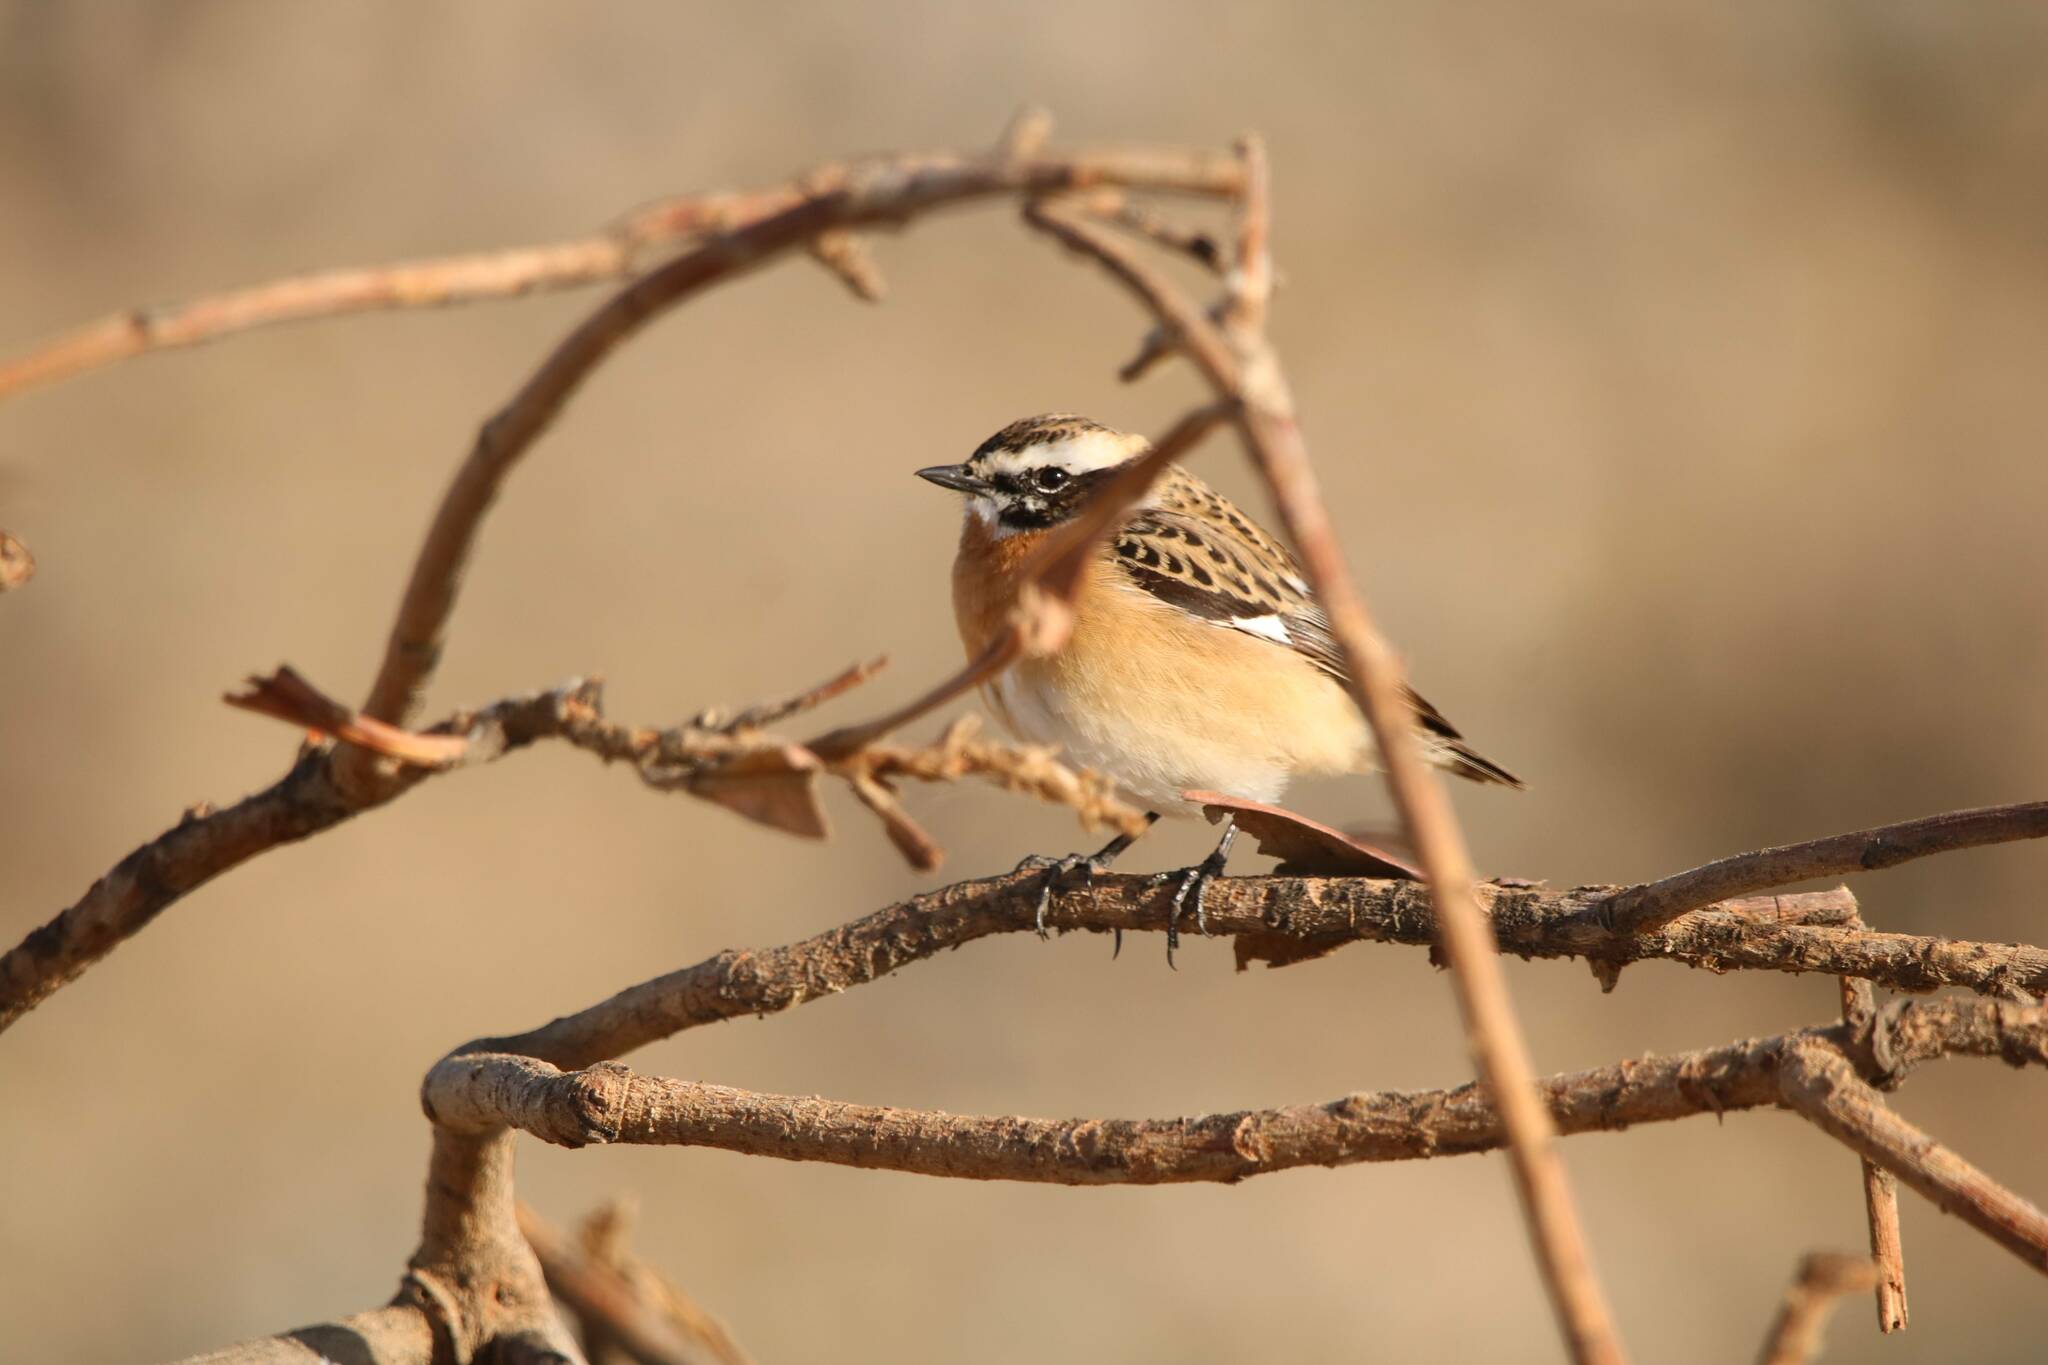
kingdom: Animalia
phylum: Chordata
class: Aves
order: Passeriformes
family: Muscicapidae
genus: Saxicola
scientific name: Saxicola rubetra
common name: Whinchat
